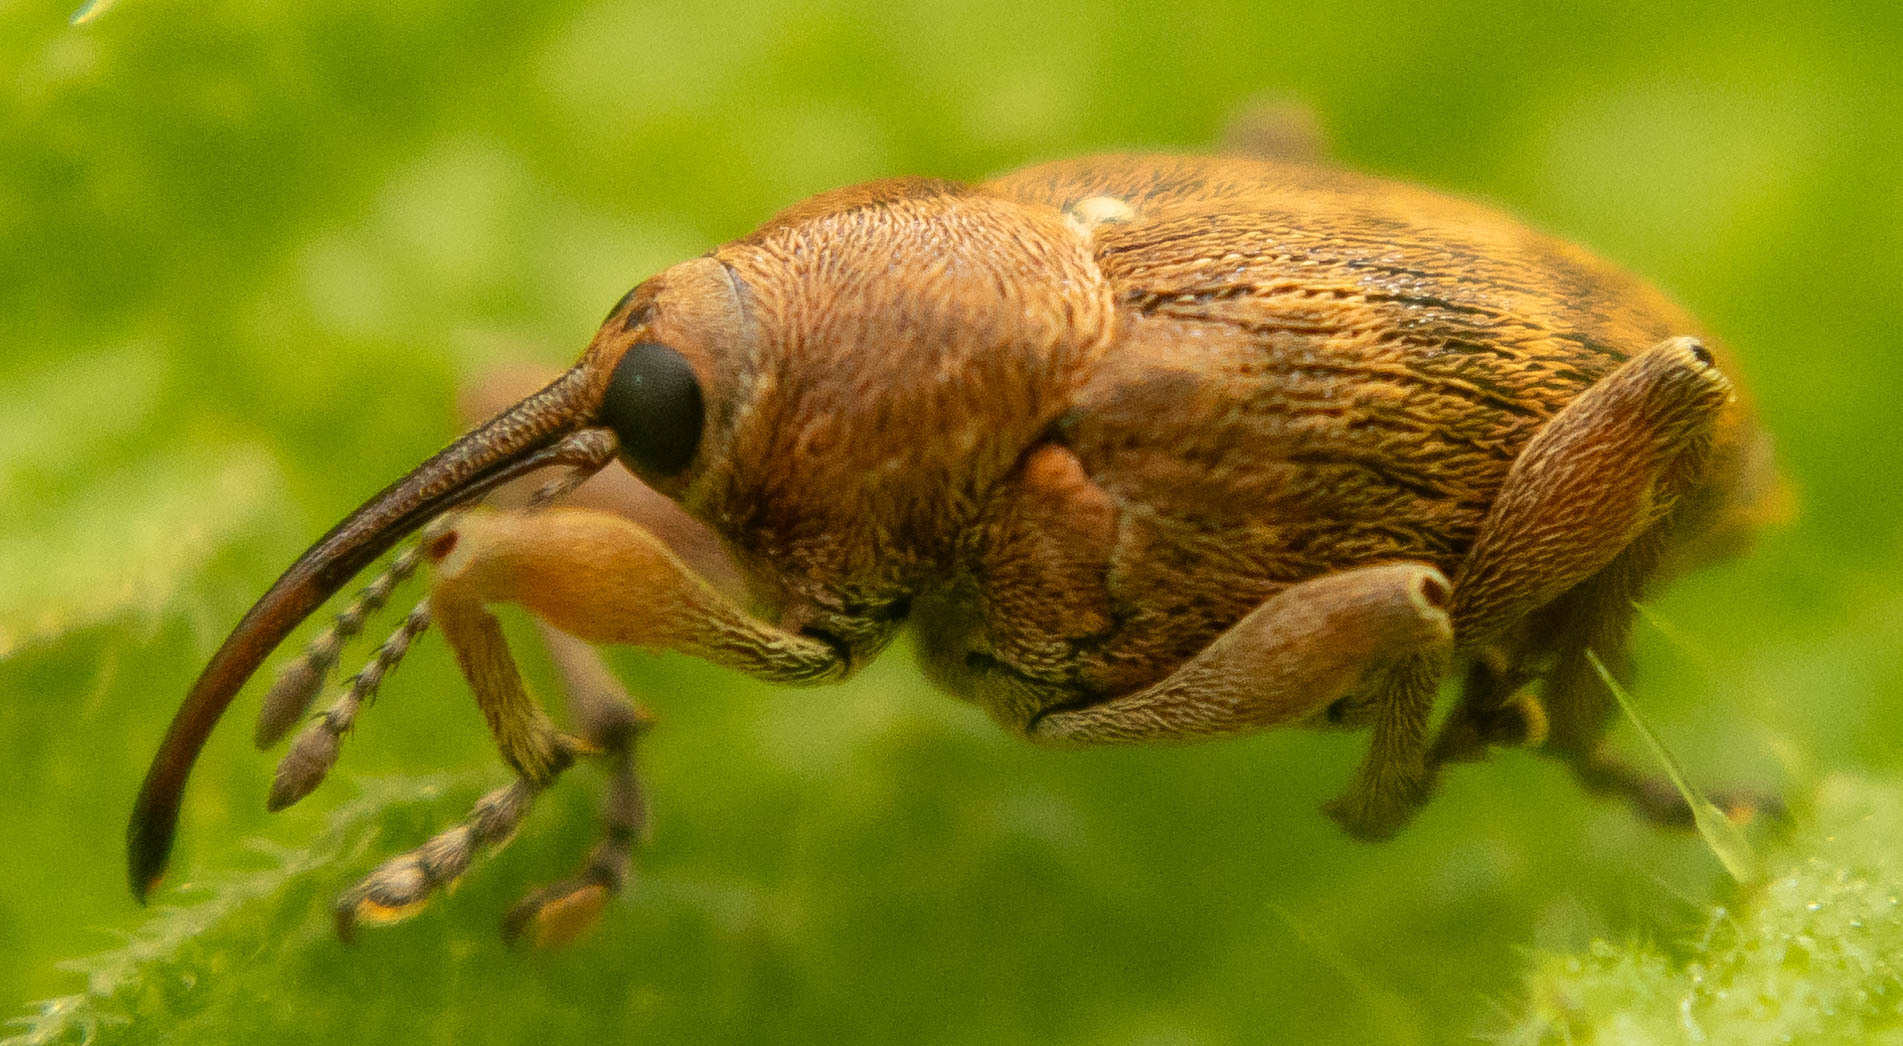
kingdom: Animalia
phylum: Arthropoda
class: Insecta
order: Coleoptera
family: Curculionidae
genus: Curculio
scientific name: Curculio nucum
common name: Nut weevil
